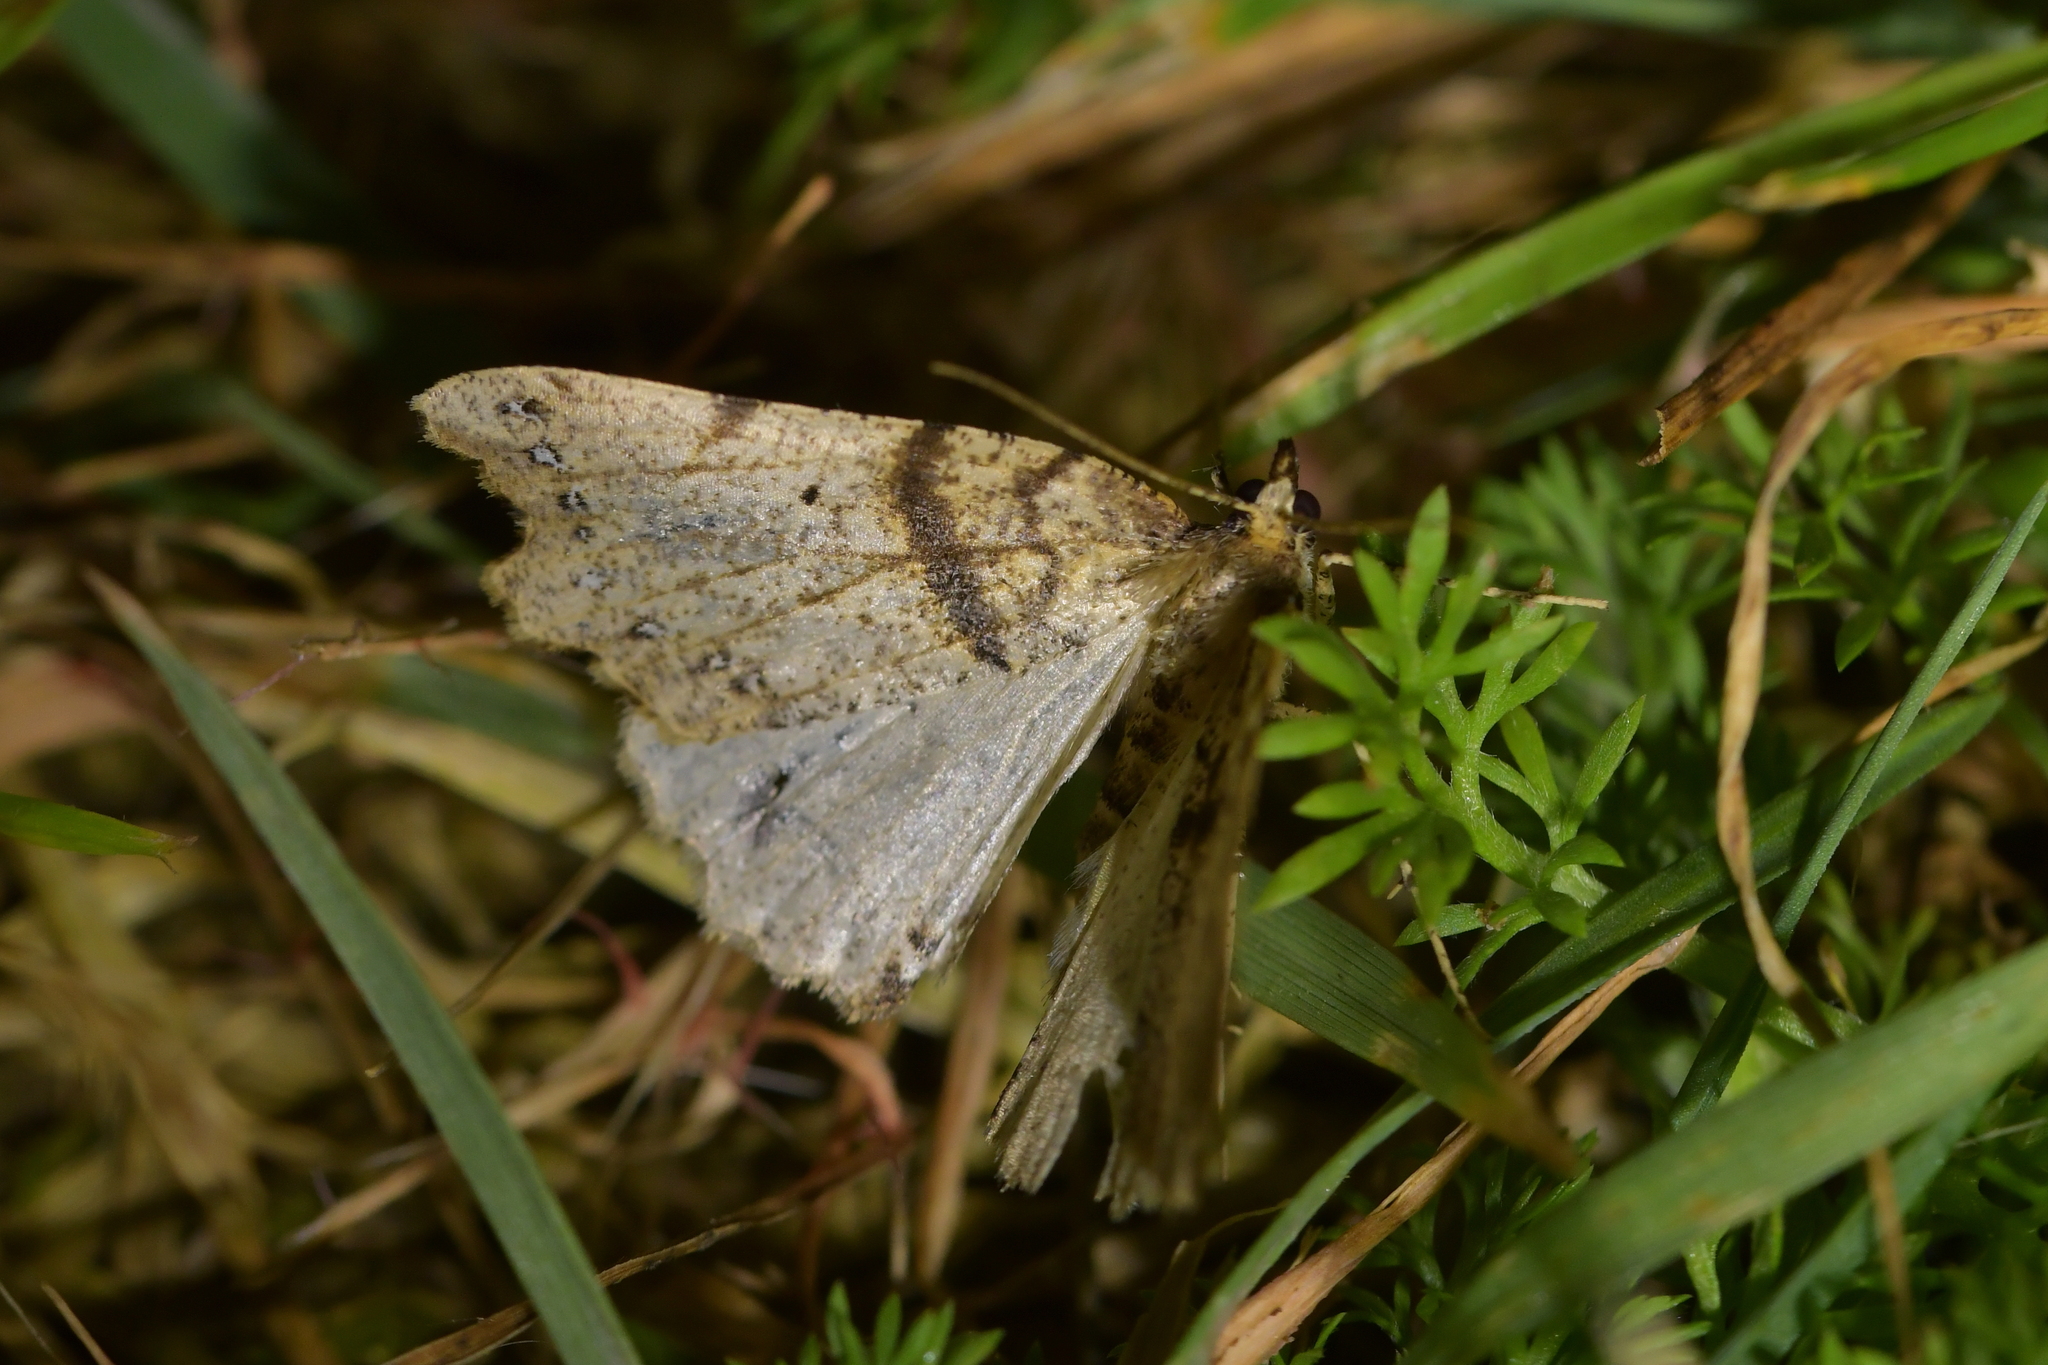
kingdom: Animalia
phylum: Arthropoda
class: Insecta
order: Lepidoptera
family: Geometridae
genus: Chalastra
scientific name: Chalastra pellurgata
